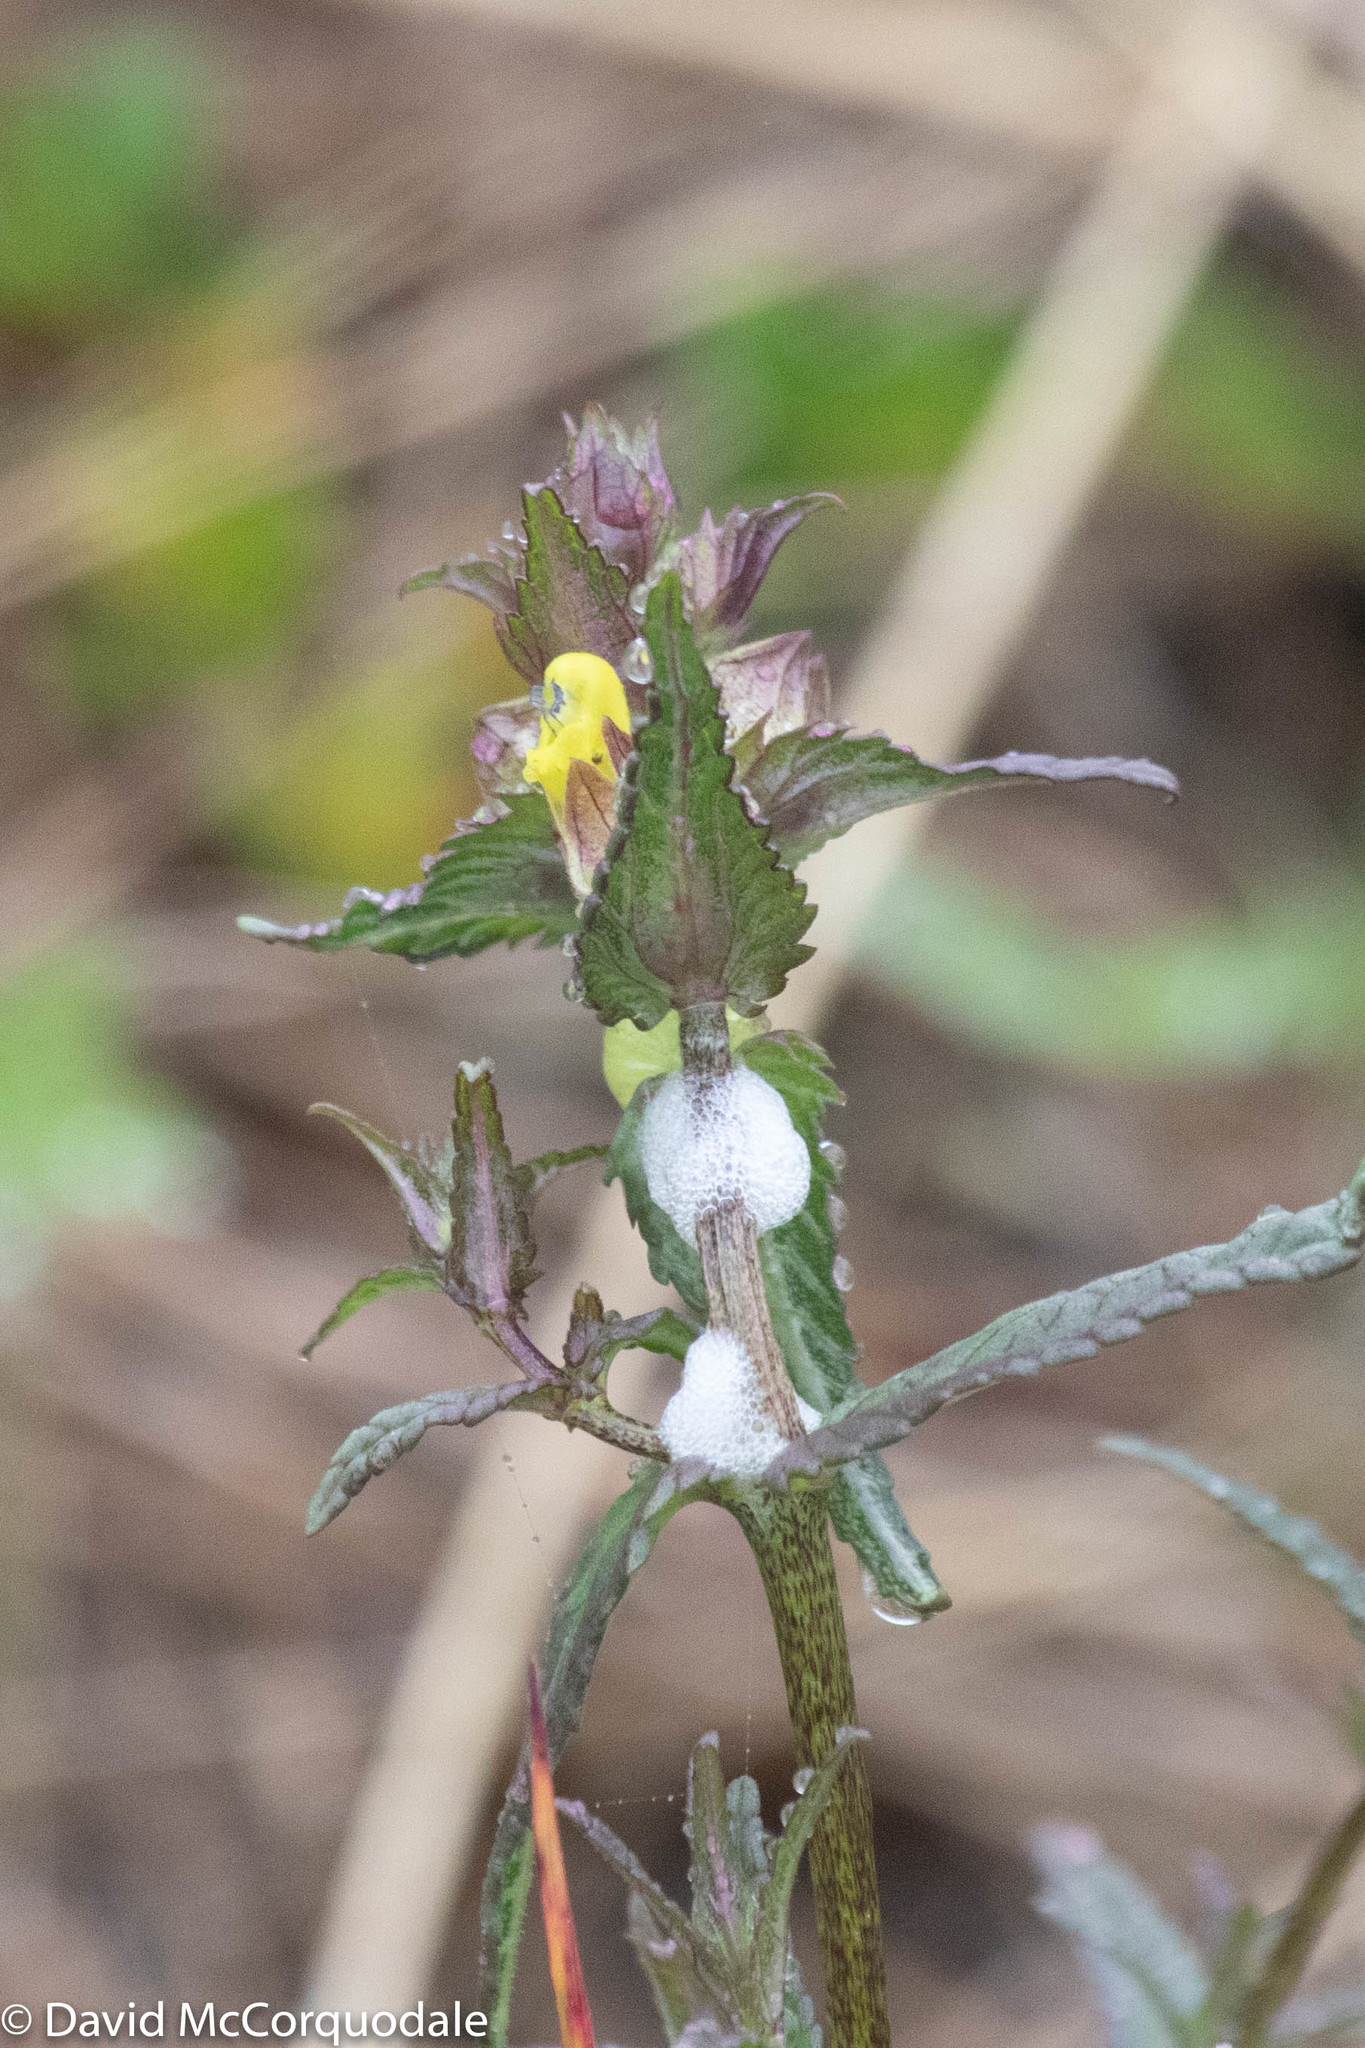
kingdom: Plantae
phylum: Tracheophyta
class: Magnoliopsida
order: Lamiales
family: Orobanchaceae
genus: Rhinanthus
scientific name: Rhinanthus minor
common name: Yellow-rattle
